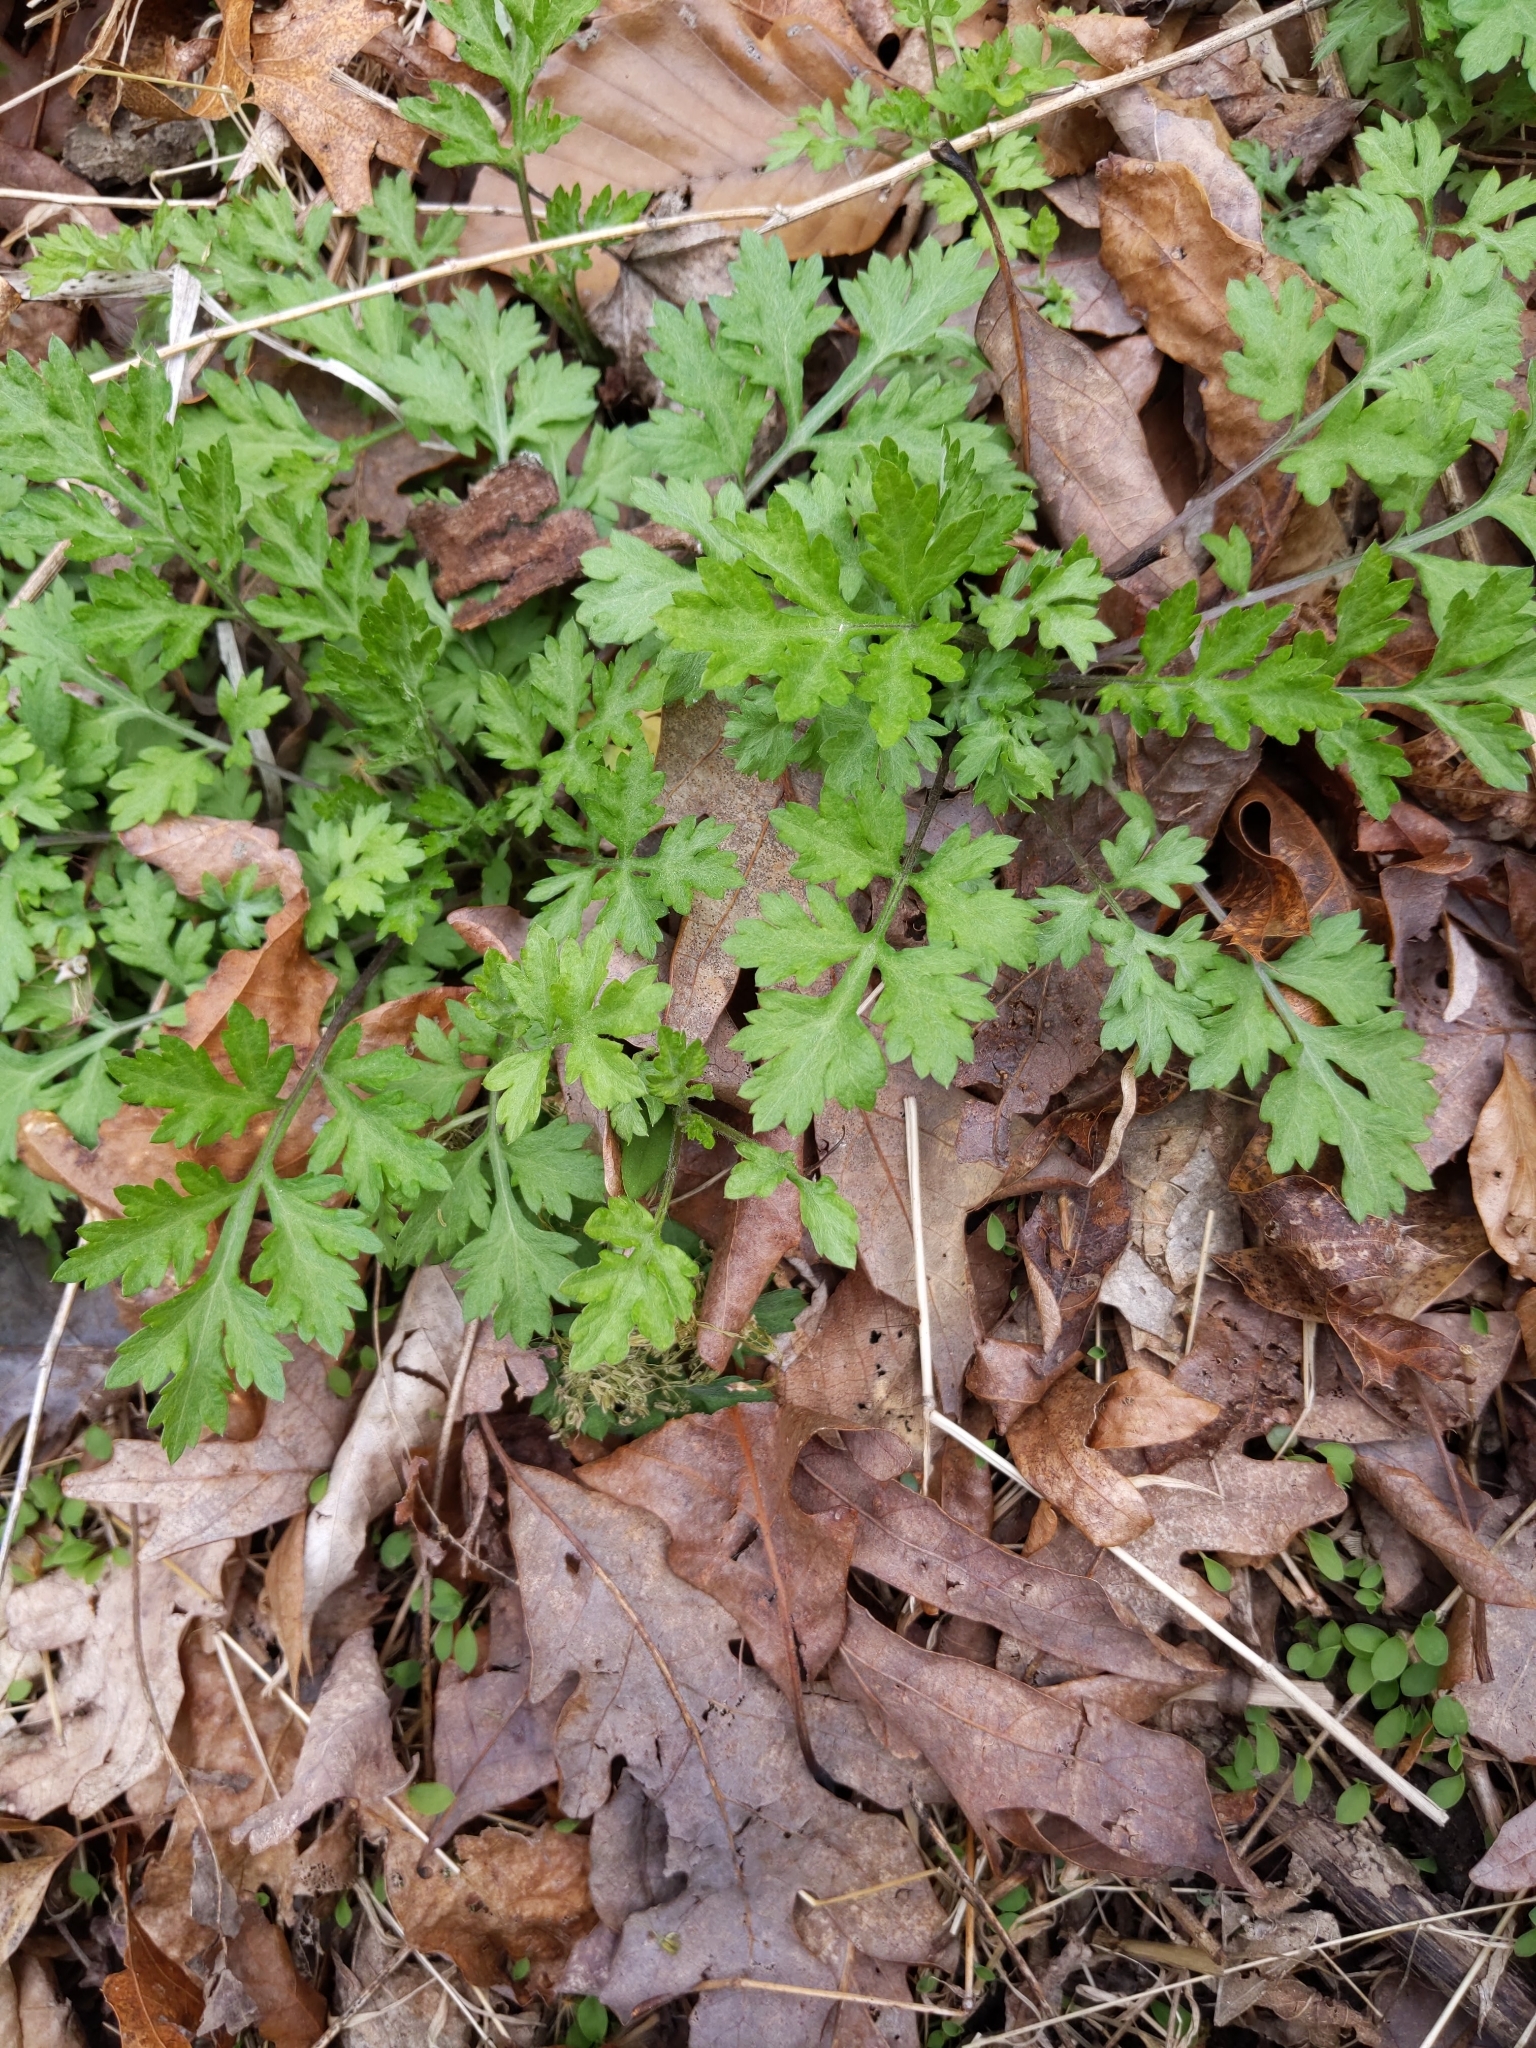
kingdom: Plantae
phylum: Tracheophyta
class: Magnoliopsida
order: Asterales
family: Asteraceae
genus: Artemisia
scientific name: Artemisia vulgaris
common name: Mugwort
